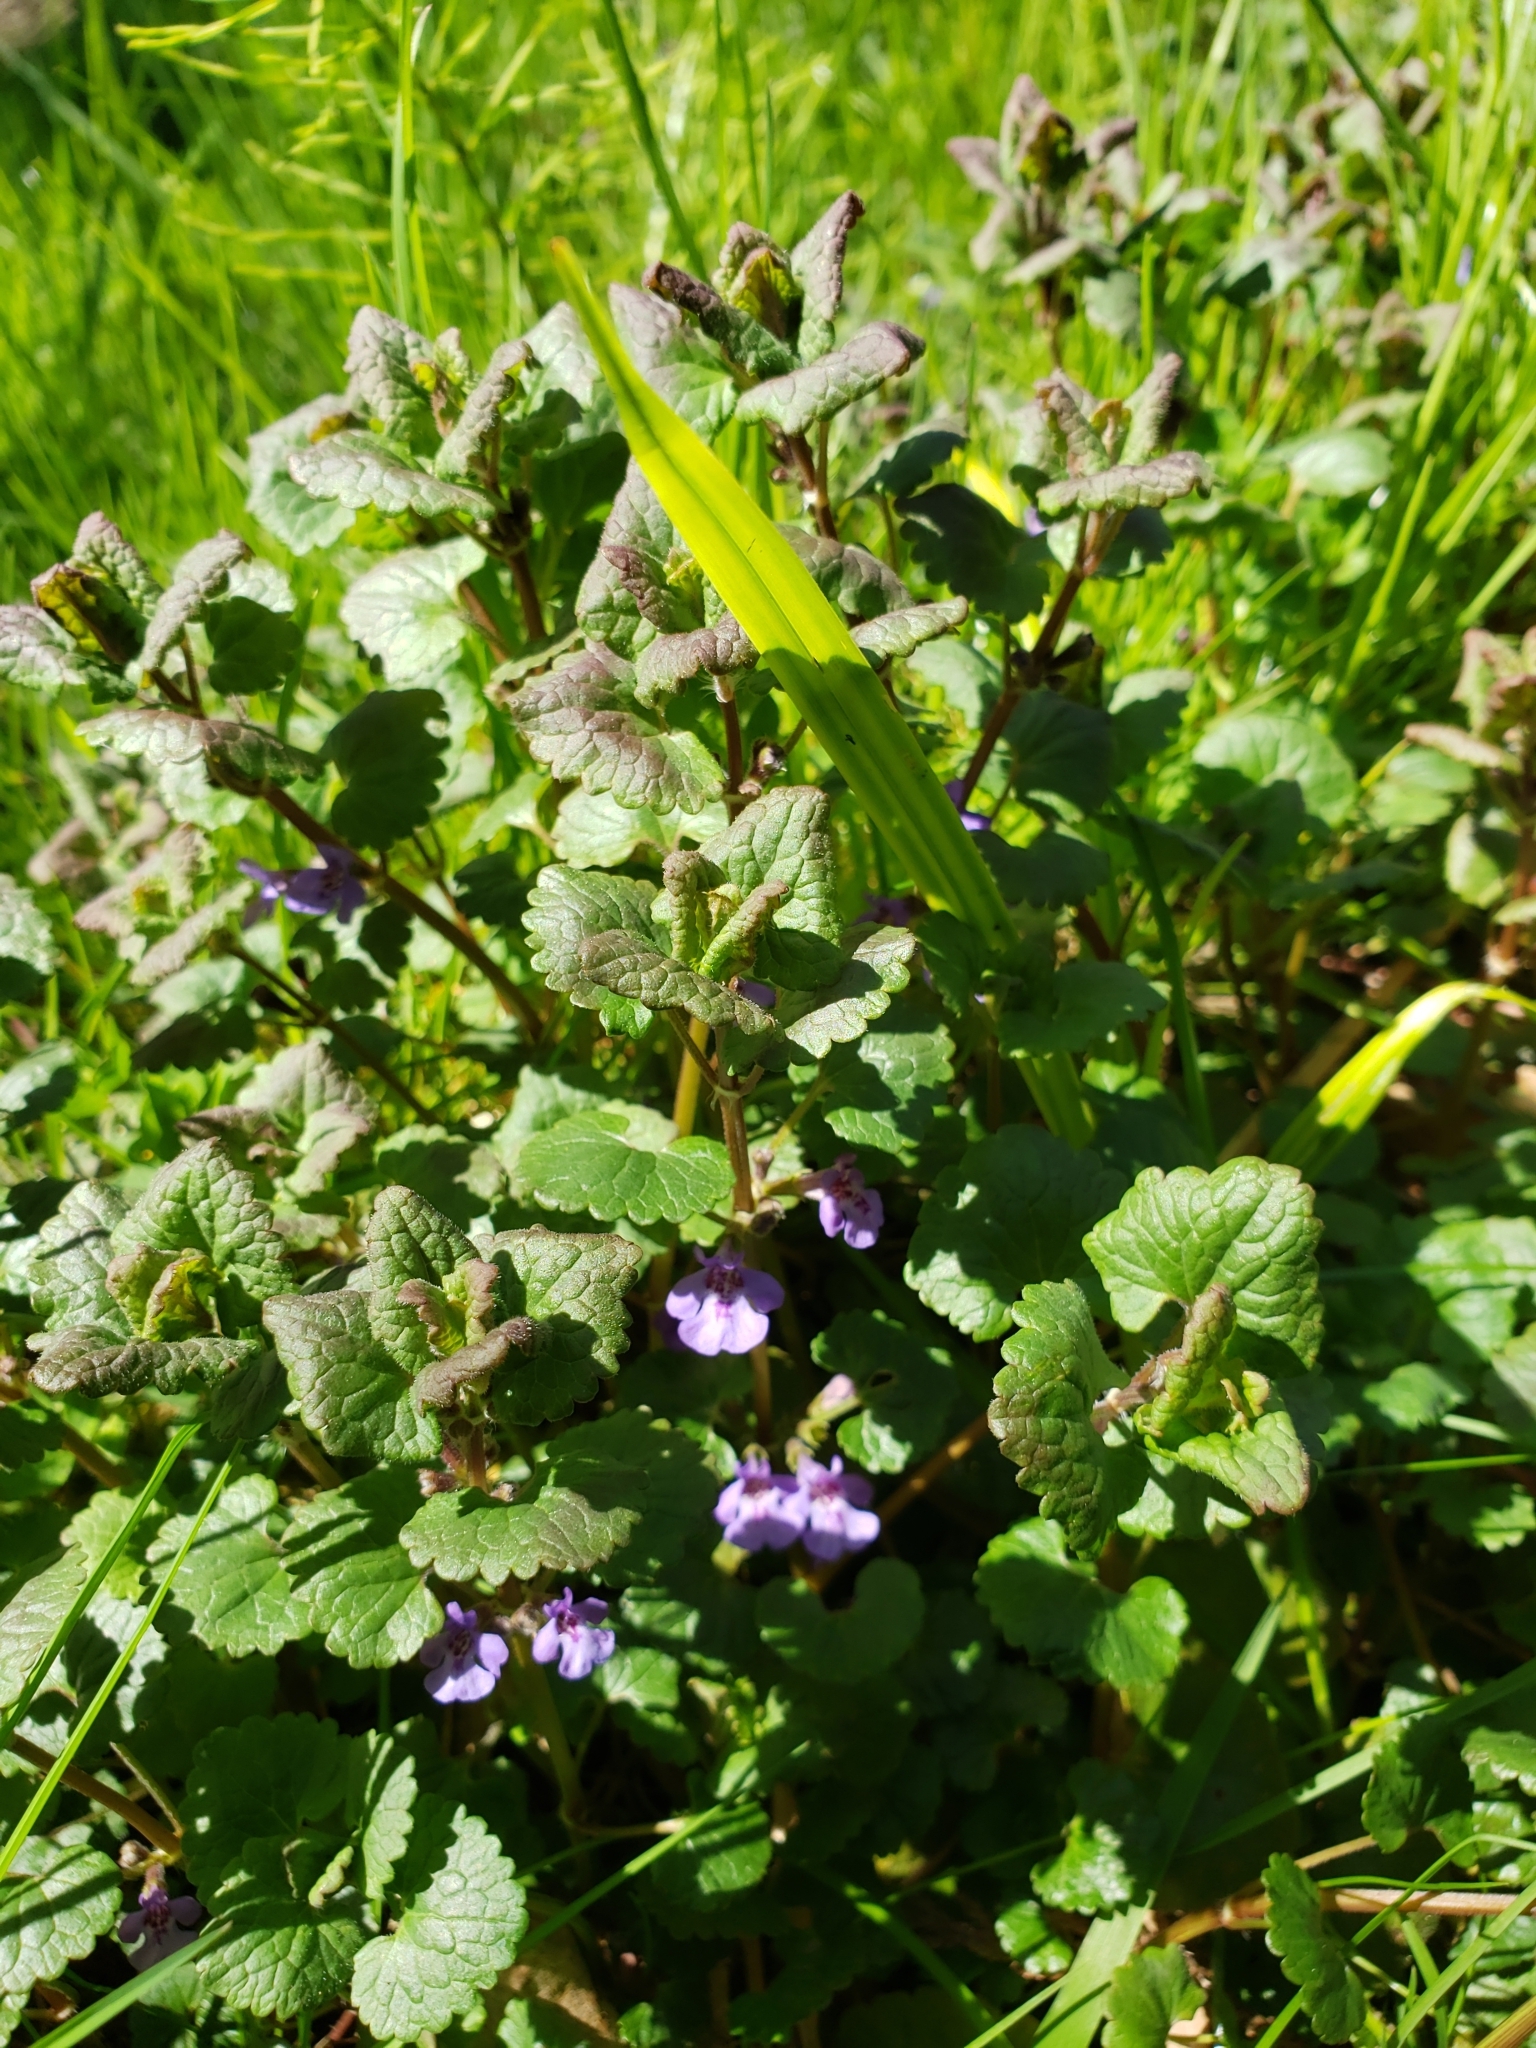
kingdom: Plantae
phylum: Tracheophyta
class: Magnoliopsida
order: Lamiales
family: Lamiaceae
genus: Glechoma
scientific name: Glechoma hederacea
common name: Ground ivy
